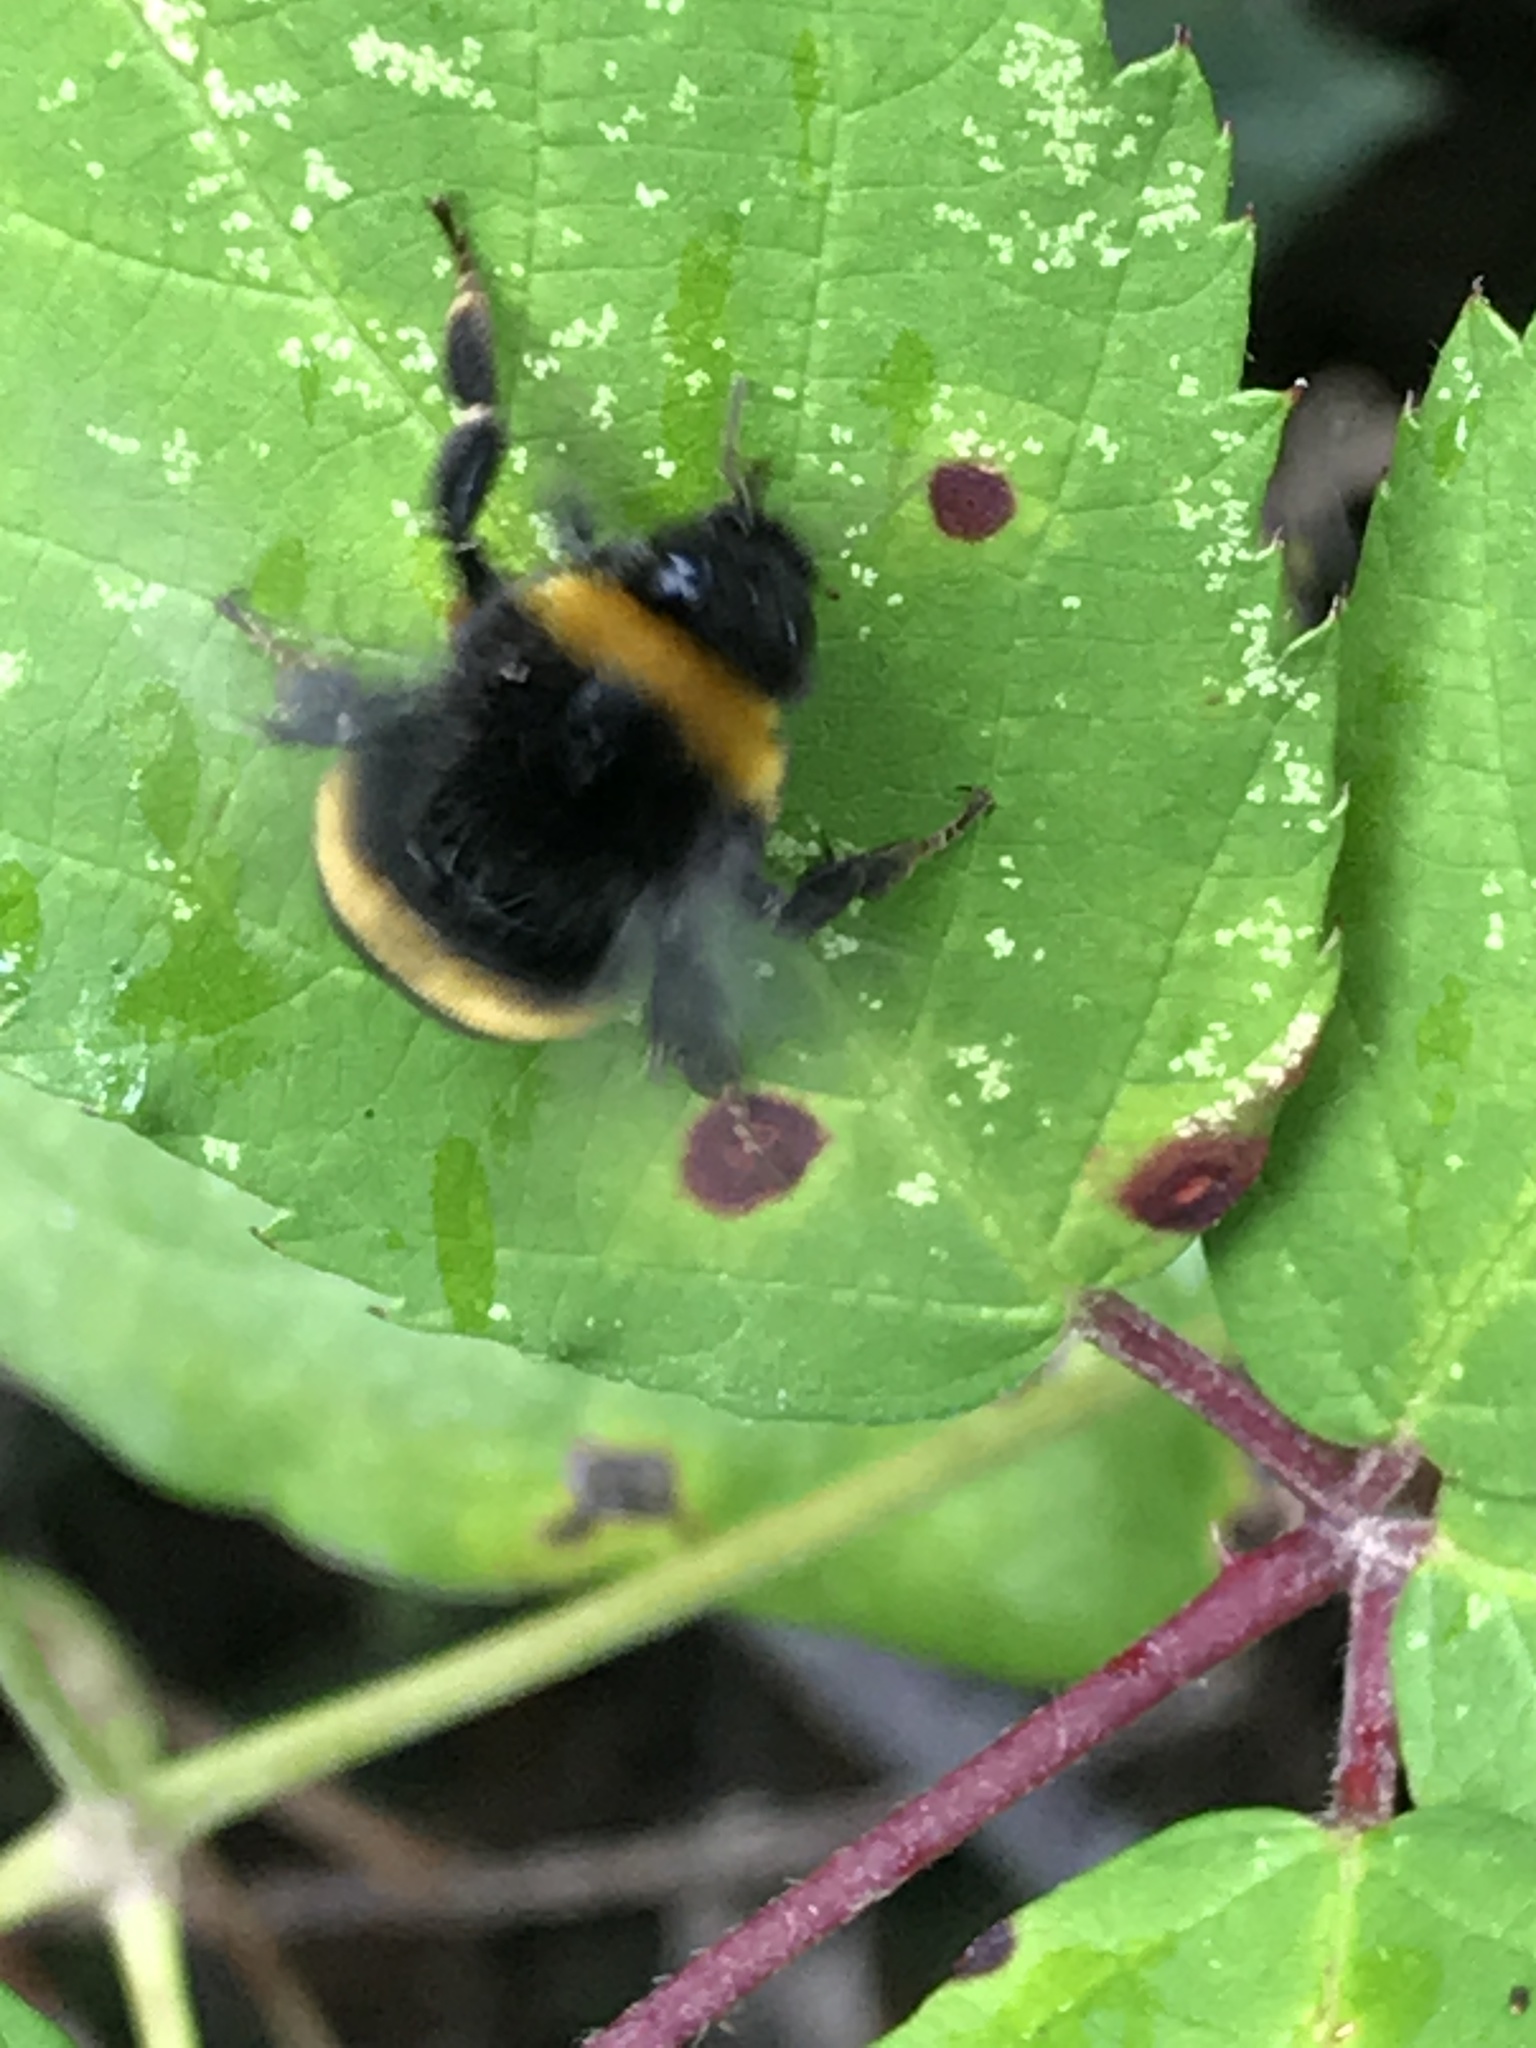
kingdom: Animalia
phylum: Arthropoda
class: Insecta
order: Hymenoptera
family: Apidae
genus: Bombus
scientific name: Bombus terrestris
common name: Buff-tailed bumblebee
